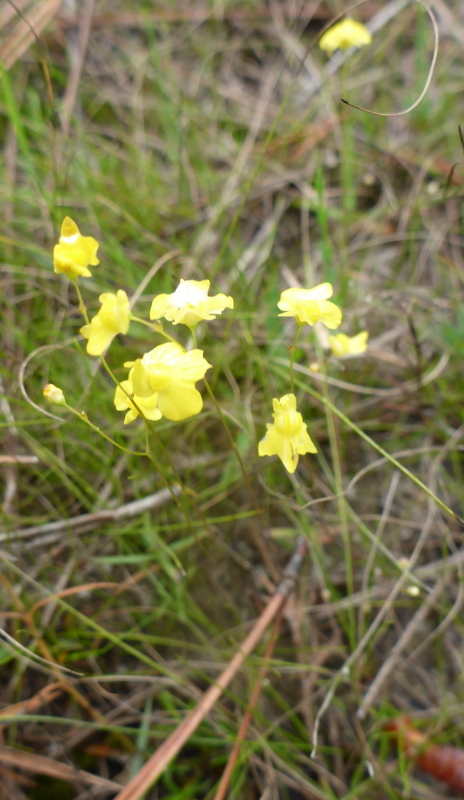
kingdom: Plantae
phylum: Tracheophyta
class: Magnoliopsida
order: Lamiales
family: Lentibulariaceae
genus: Utricularia
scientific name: Utricularia subulata
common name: Tiny bladderwort
